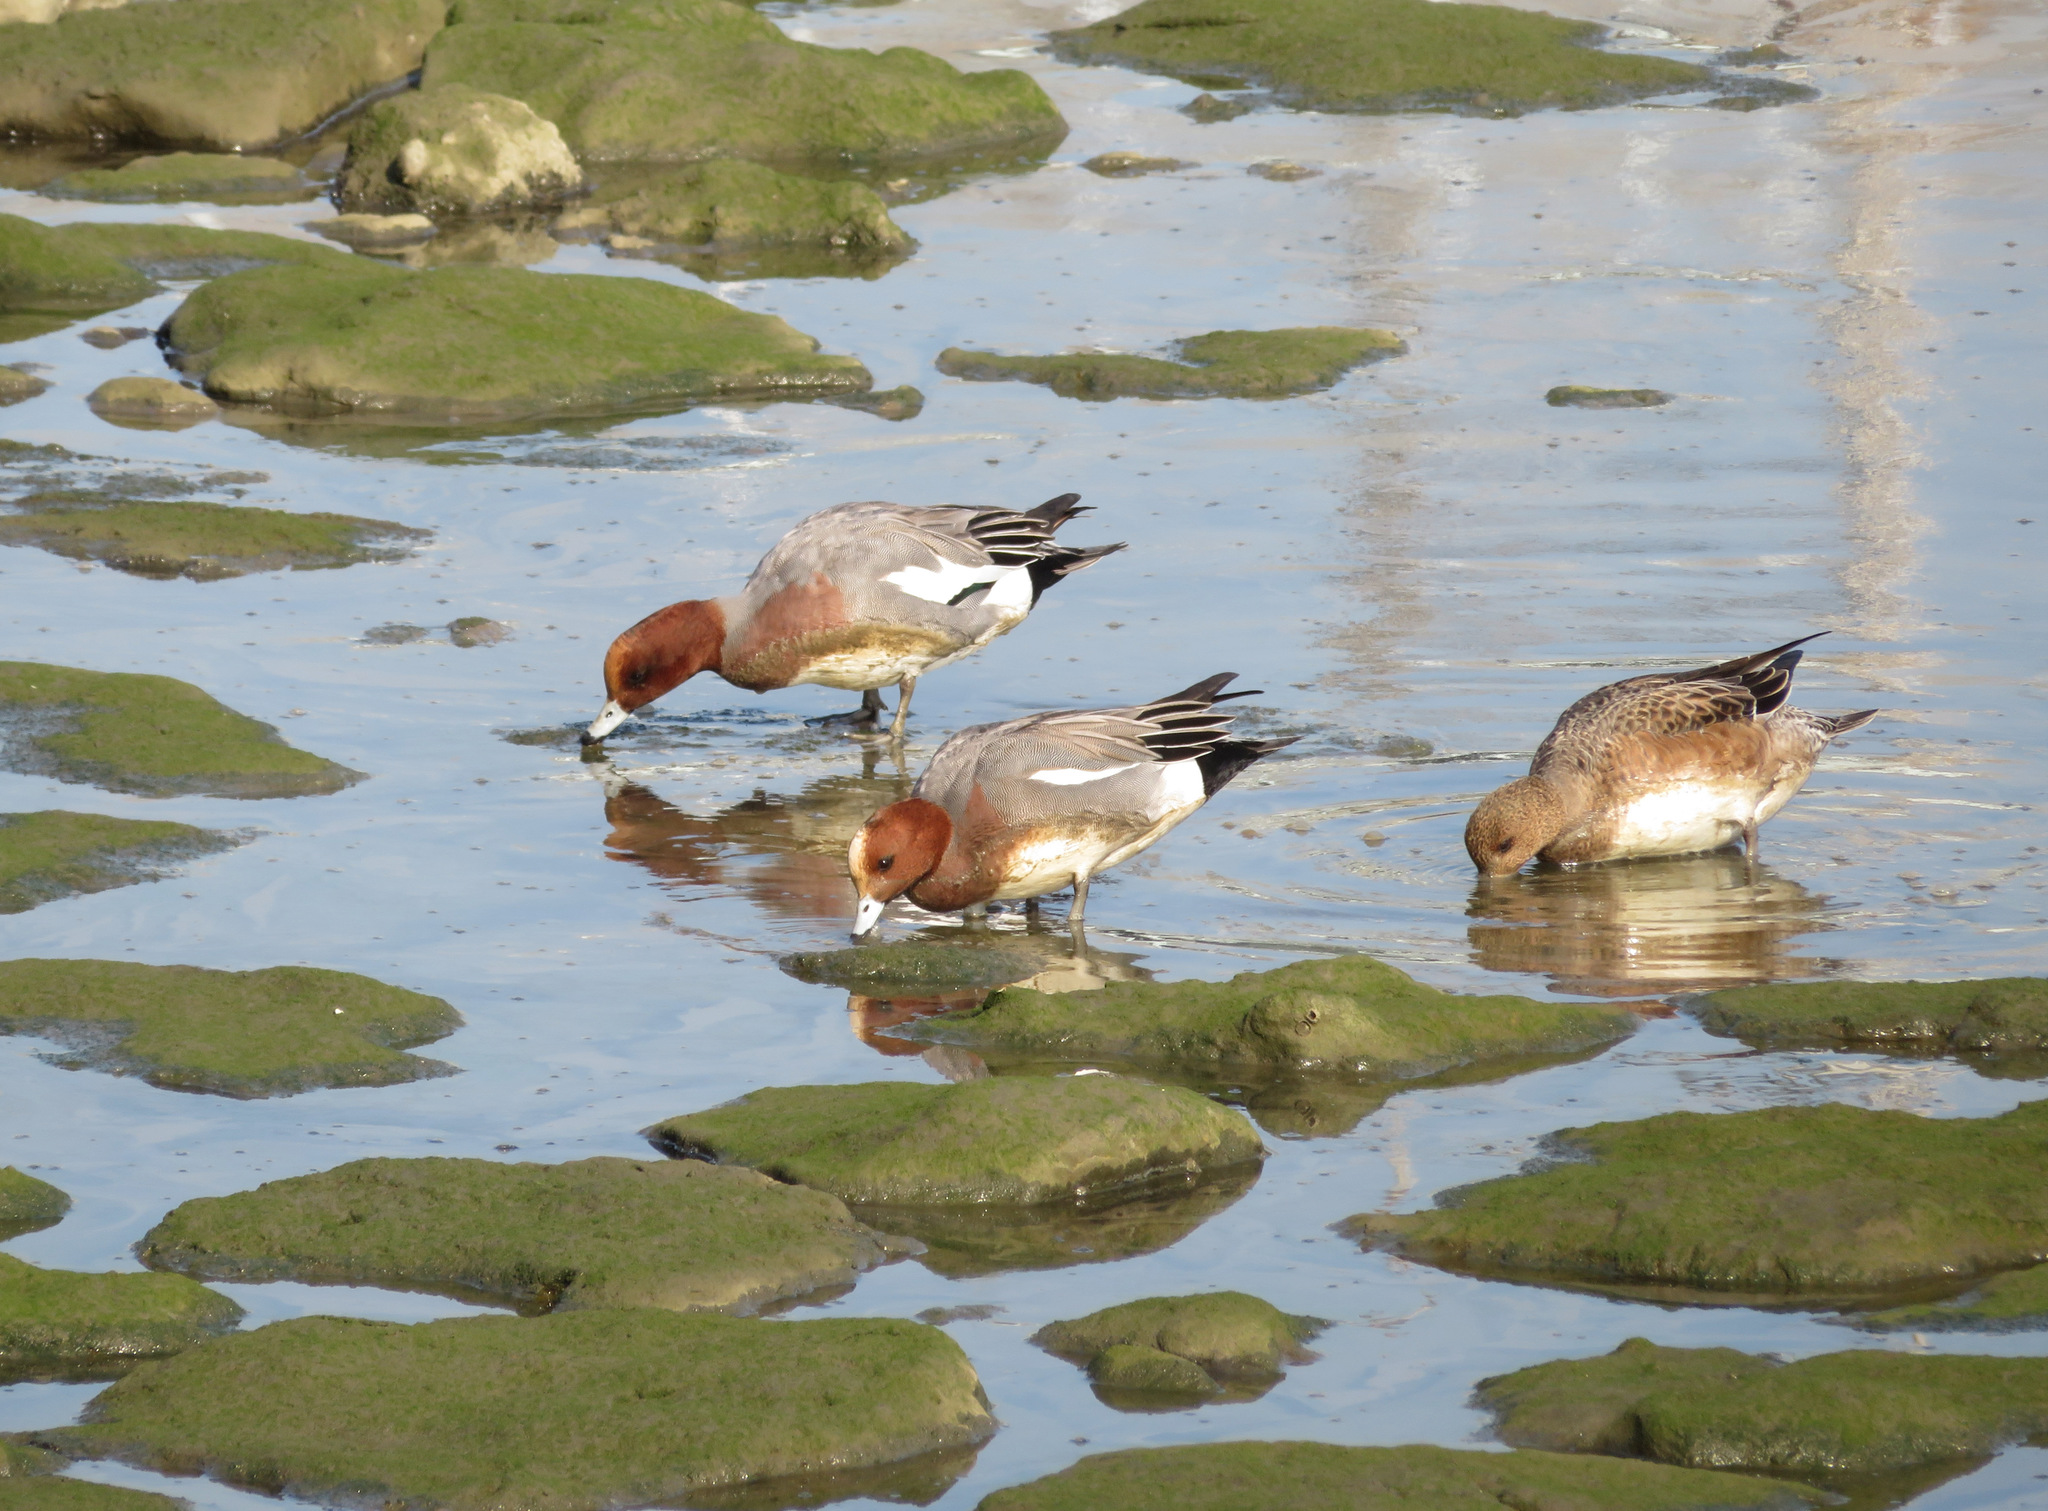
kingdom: Animalia
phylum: Chordata
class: Aves
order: Anseriformes
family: Anatidae
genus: Mareca
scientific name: Mareca penelope
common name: Eurasian wigeon
